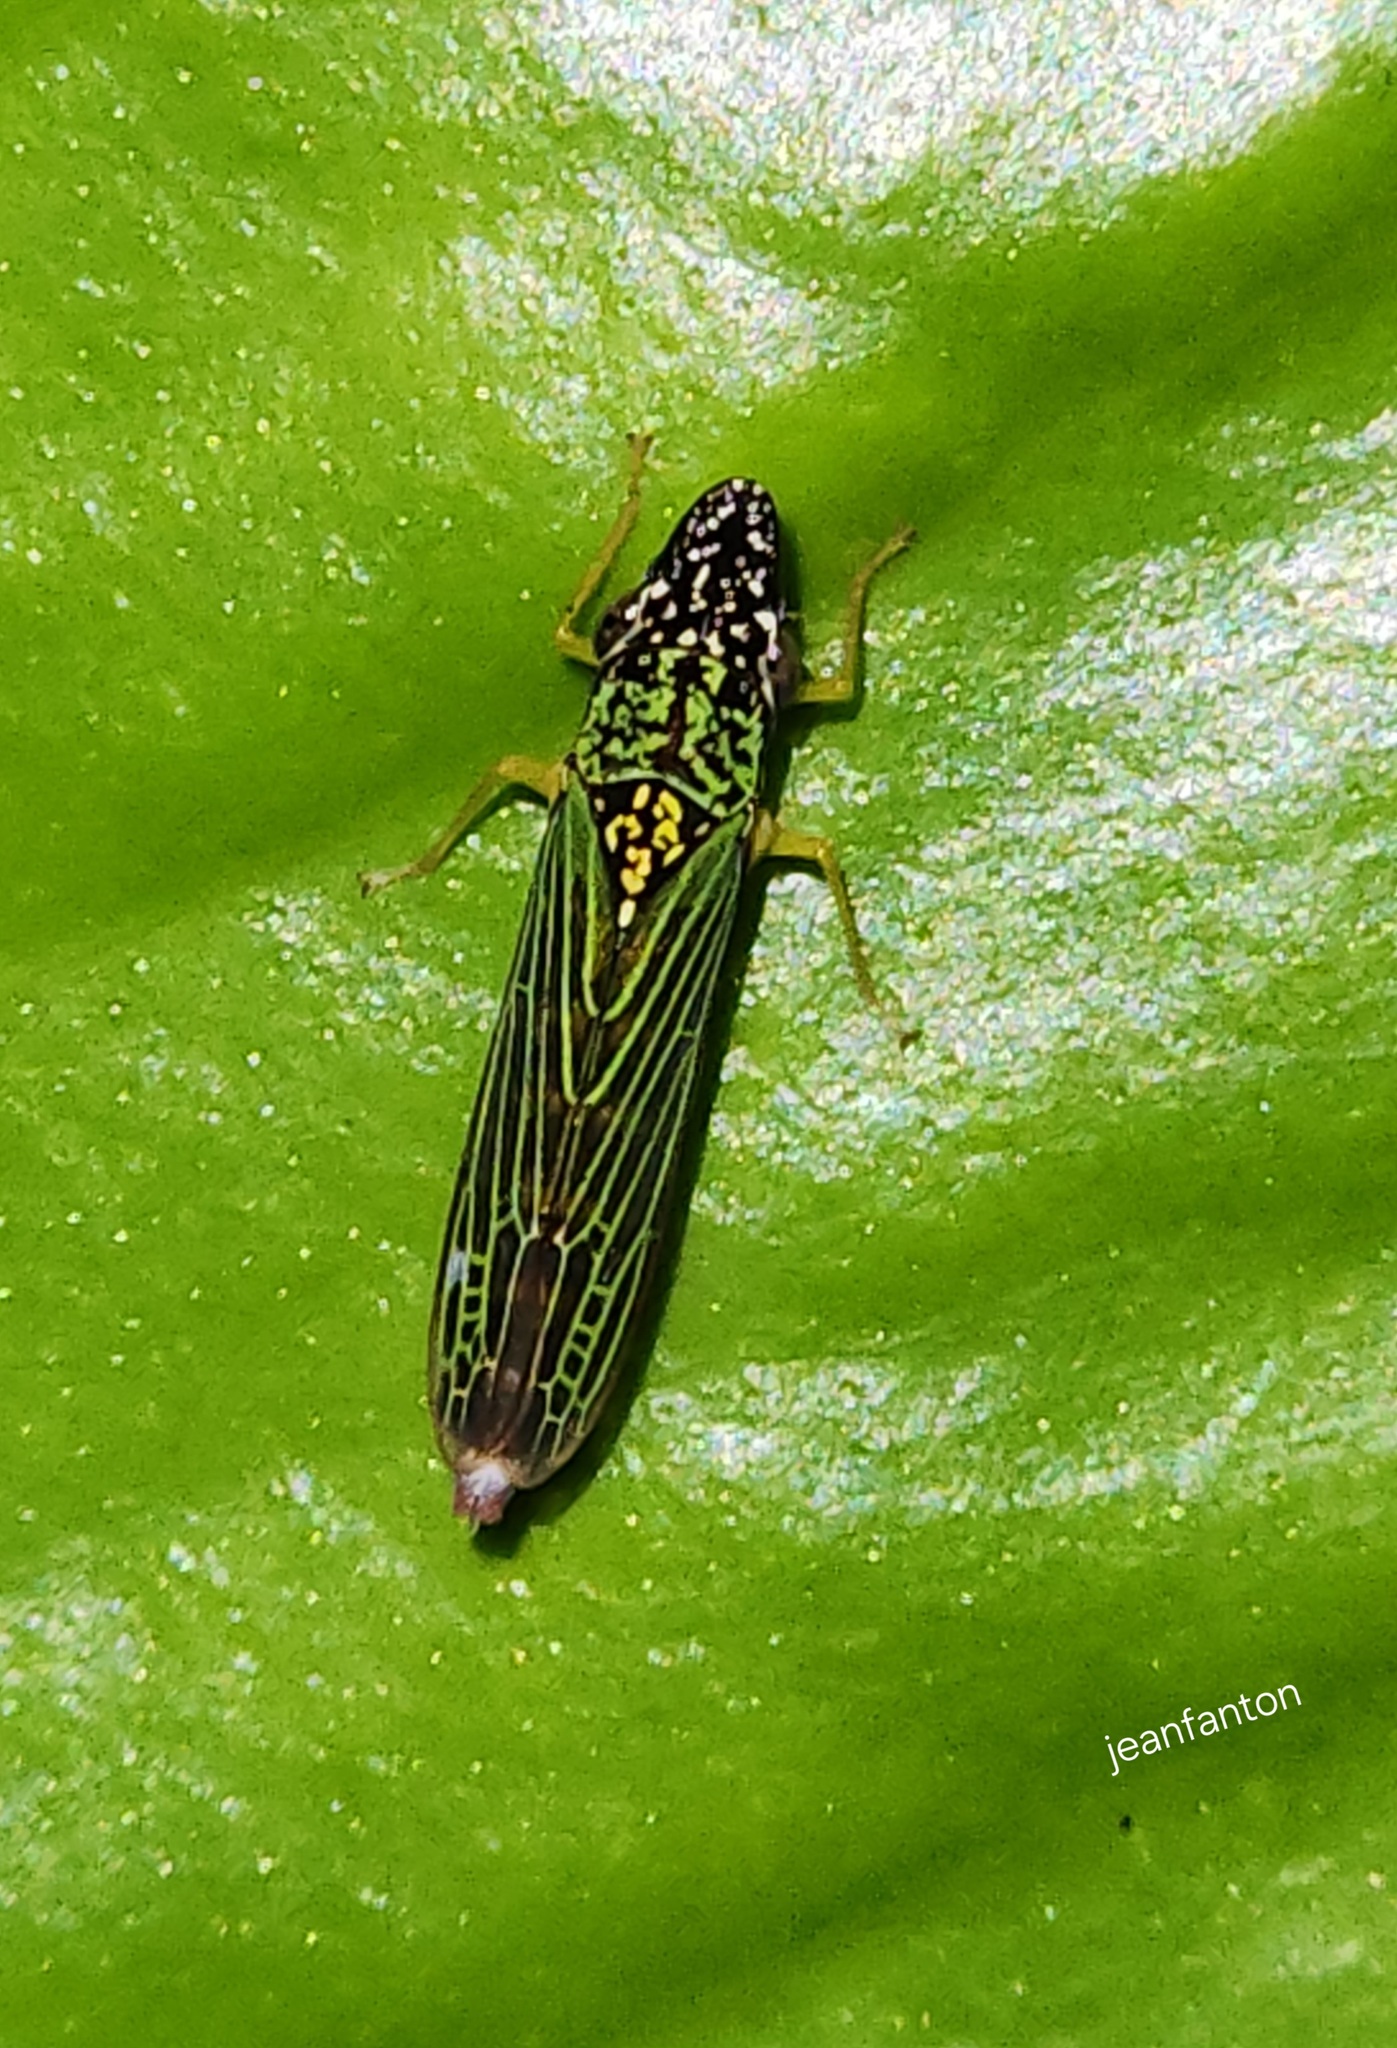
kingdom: Animalia
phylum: Arthropoda
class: Insecta
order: Hemiptera
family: Cicadellidae
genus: Acrogonia
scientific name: Acrogonia citrina
